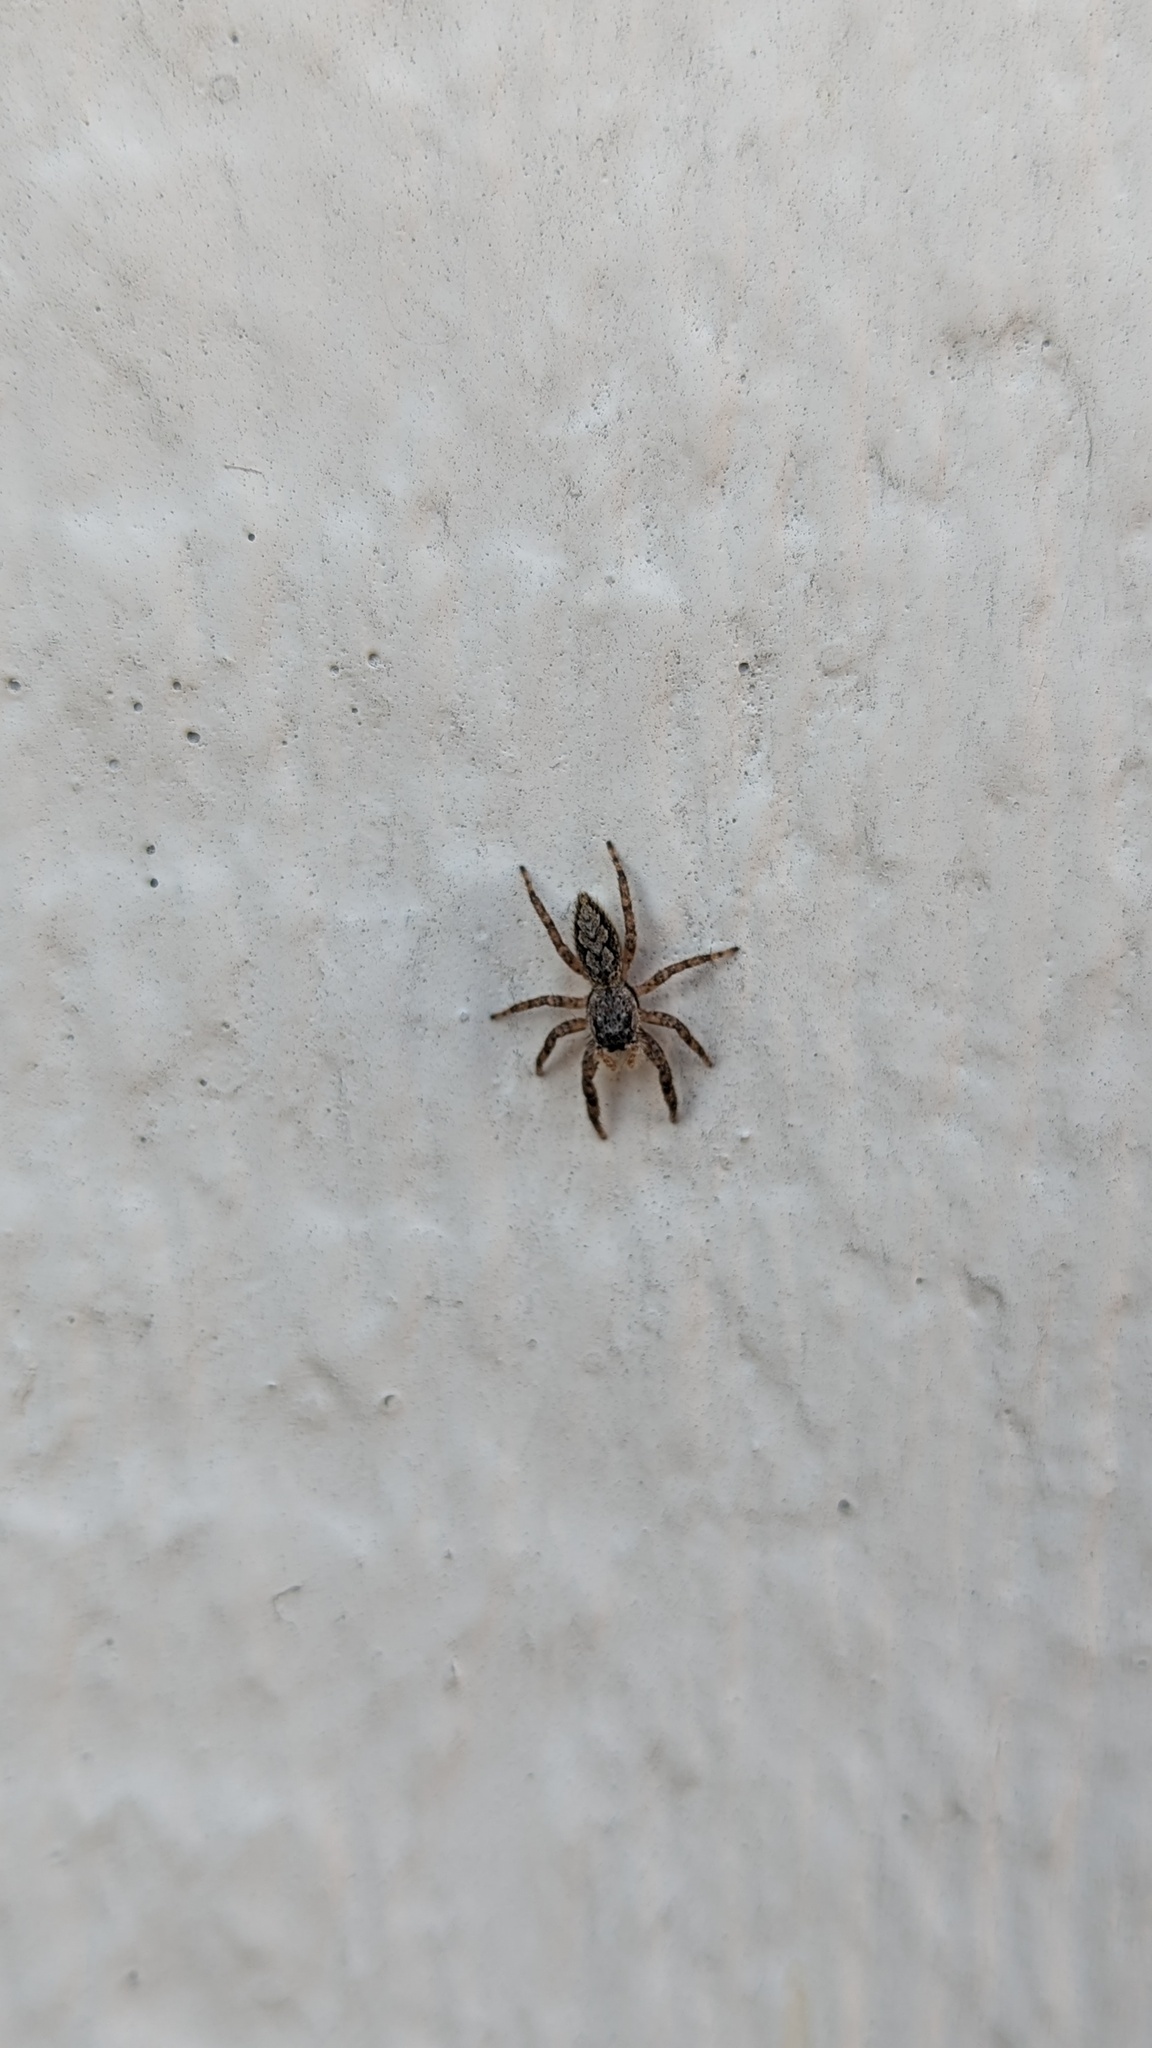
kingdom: Animalia
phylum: Arthropoda
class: Arachnida
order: Araneae
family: Salticidae
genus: Platycryptus
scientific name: Platycryptus undatus
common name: Tan jumping spider
